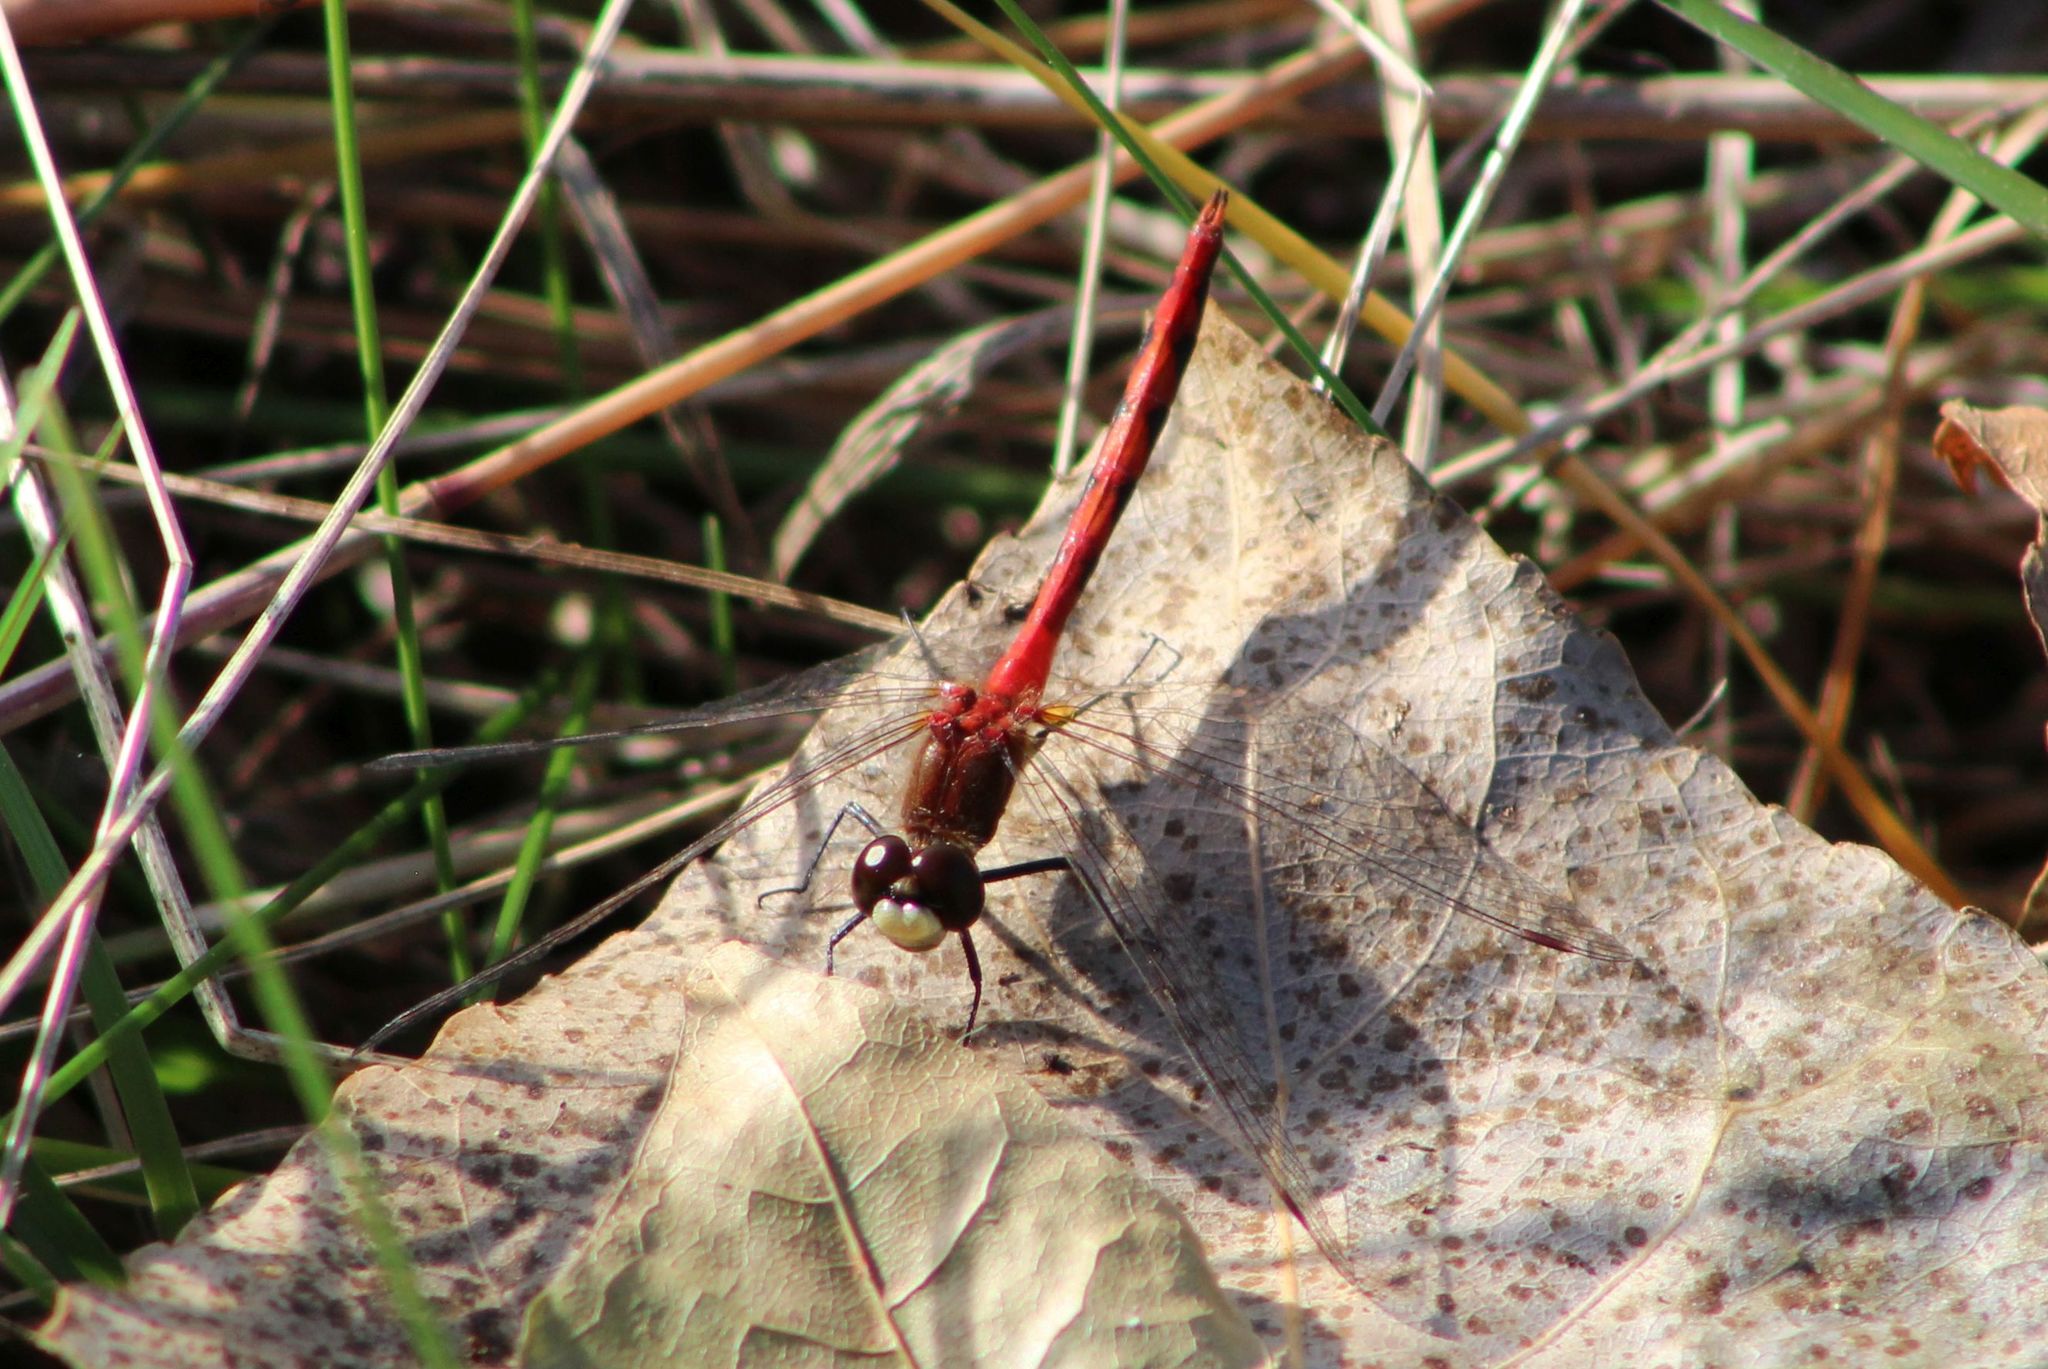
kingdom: Animalia
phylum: Arthropoda
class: Insecta
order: Odonata
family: Libellulidae
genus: Sympetrum
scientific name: Sympetrum obtrusum
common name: White-faced meadowhawk
